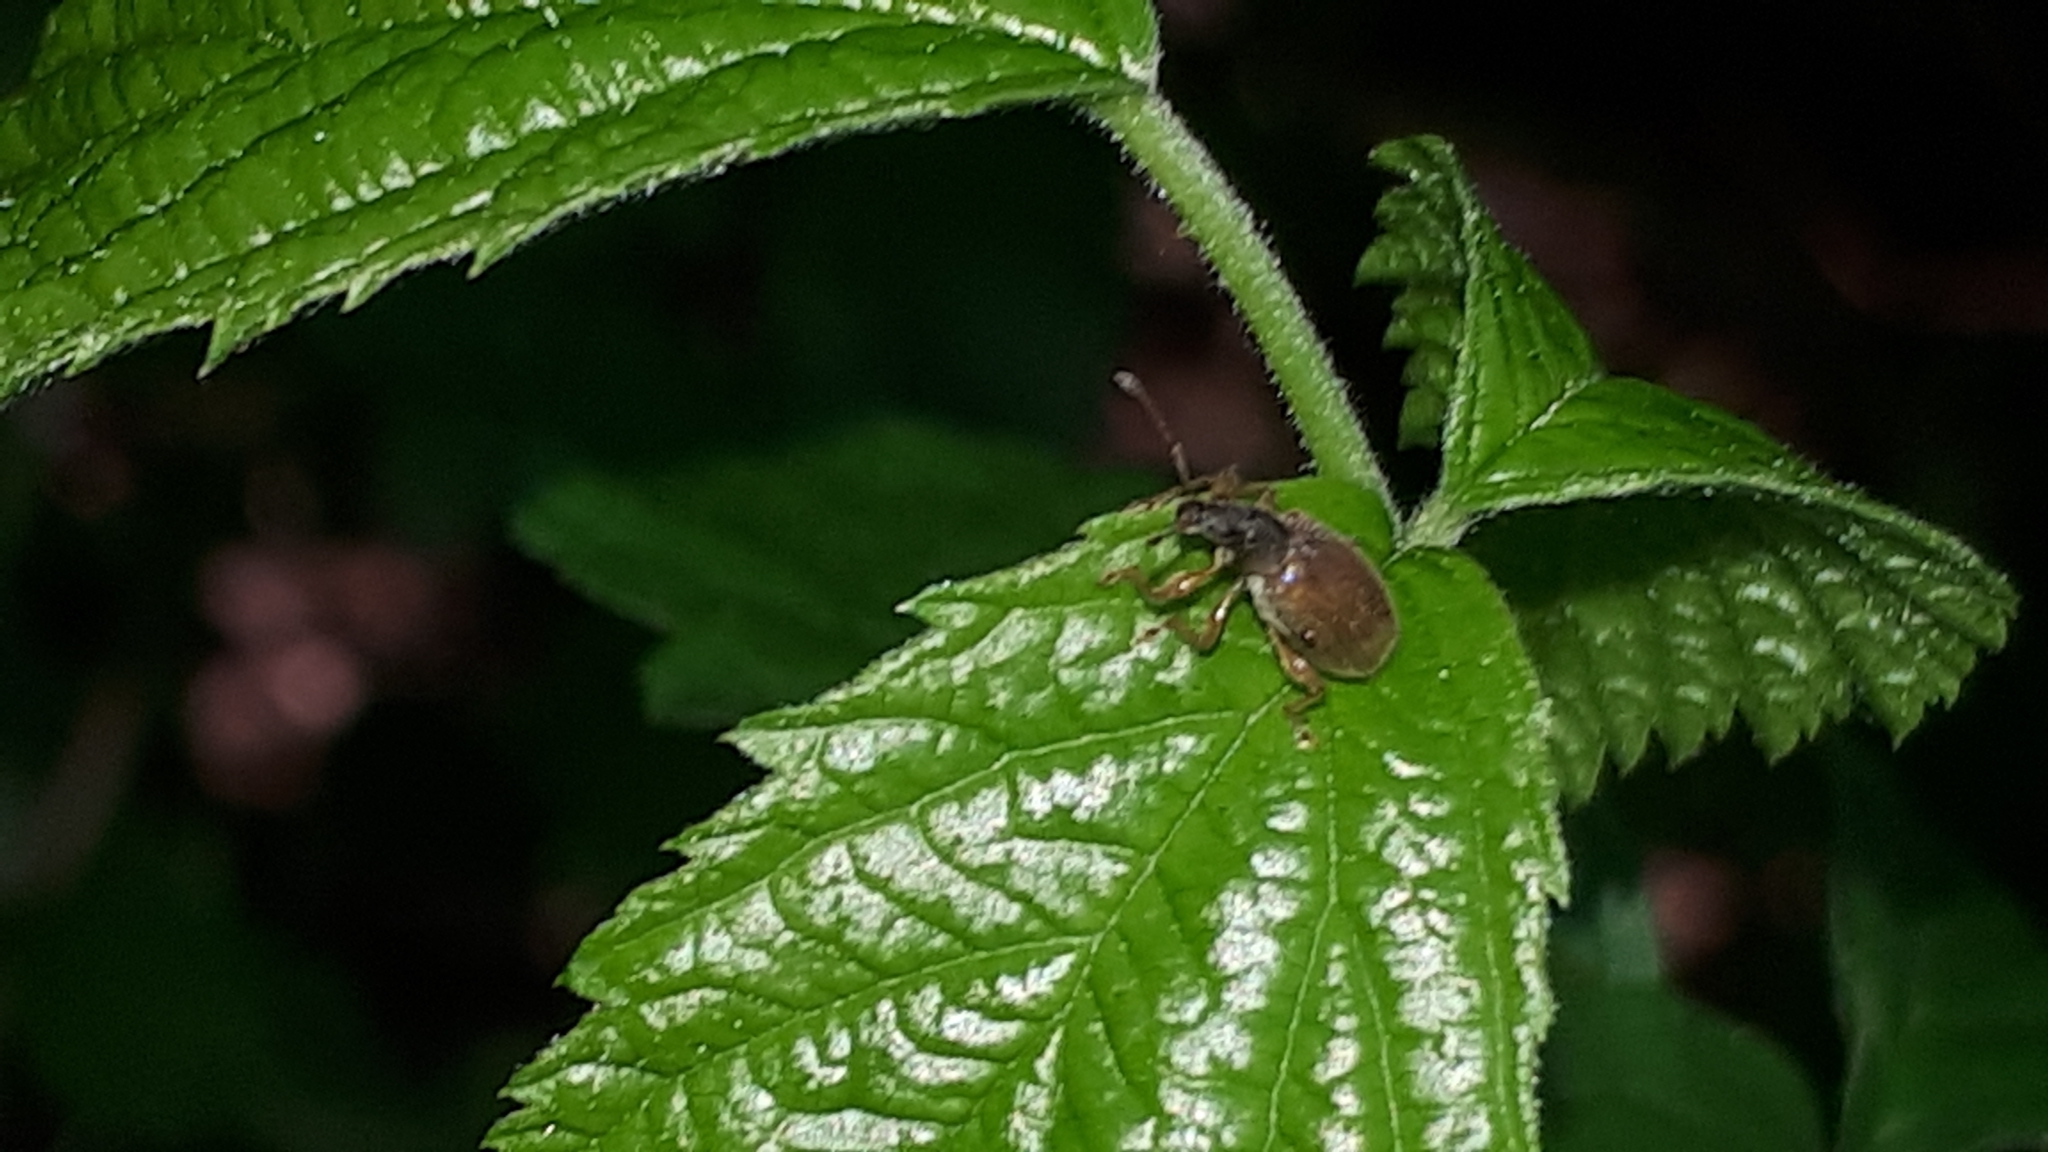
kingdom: Animalia
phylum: Arthropoda
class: Insecta
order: Coleoptera
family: Curculionidae
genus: Phyllobius
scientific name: Phyllobius oblongus
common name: Brown leaf weevil
